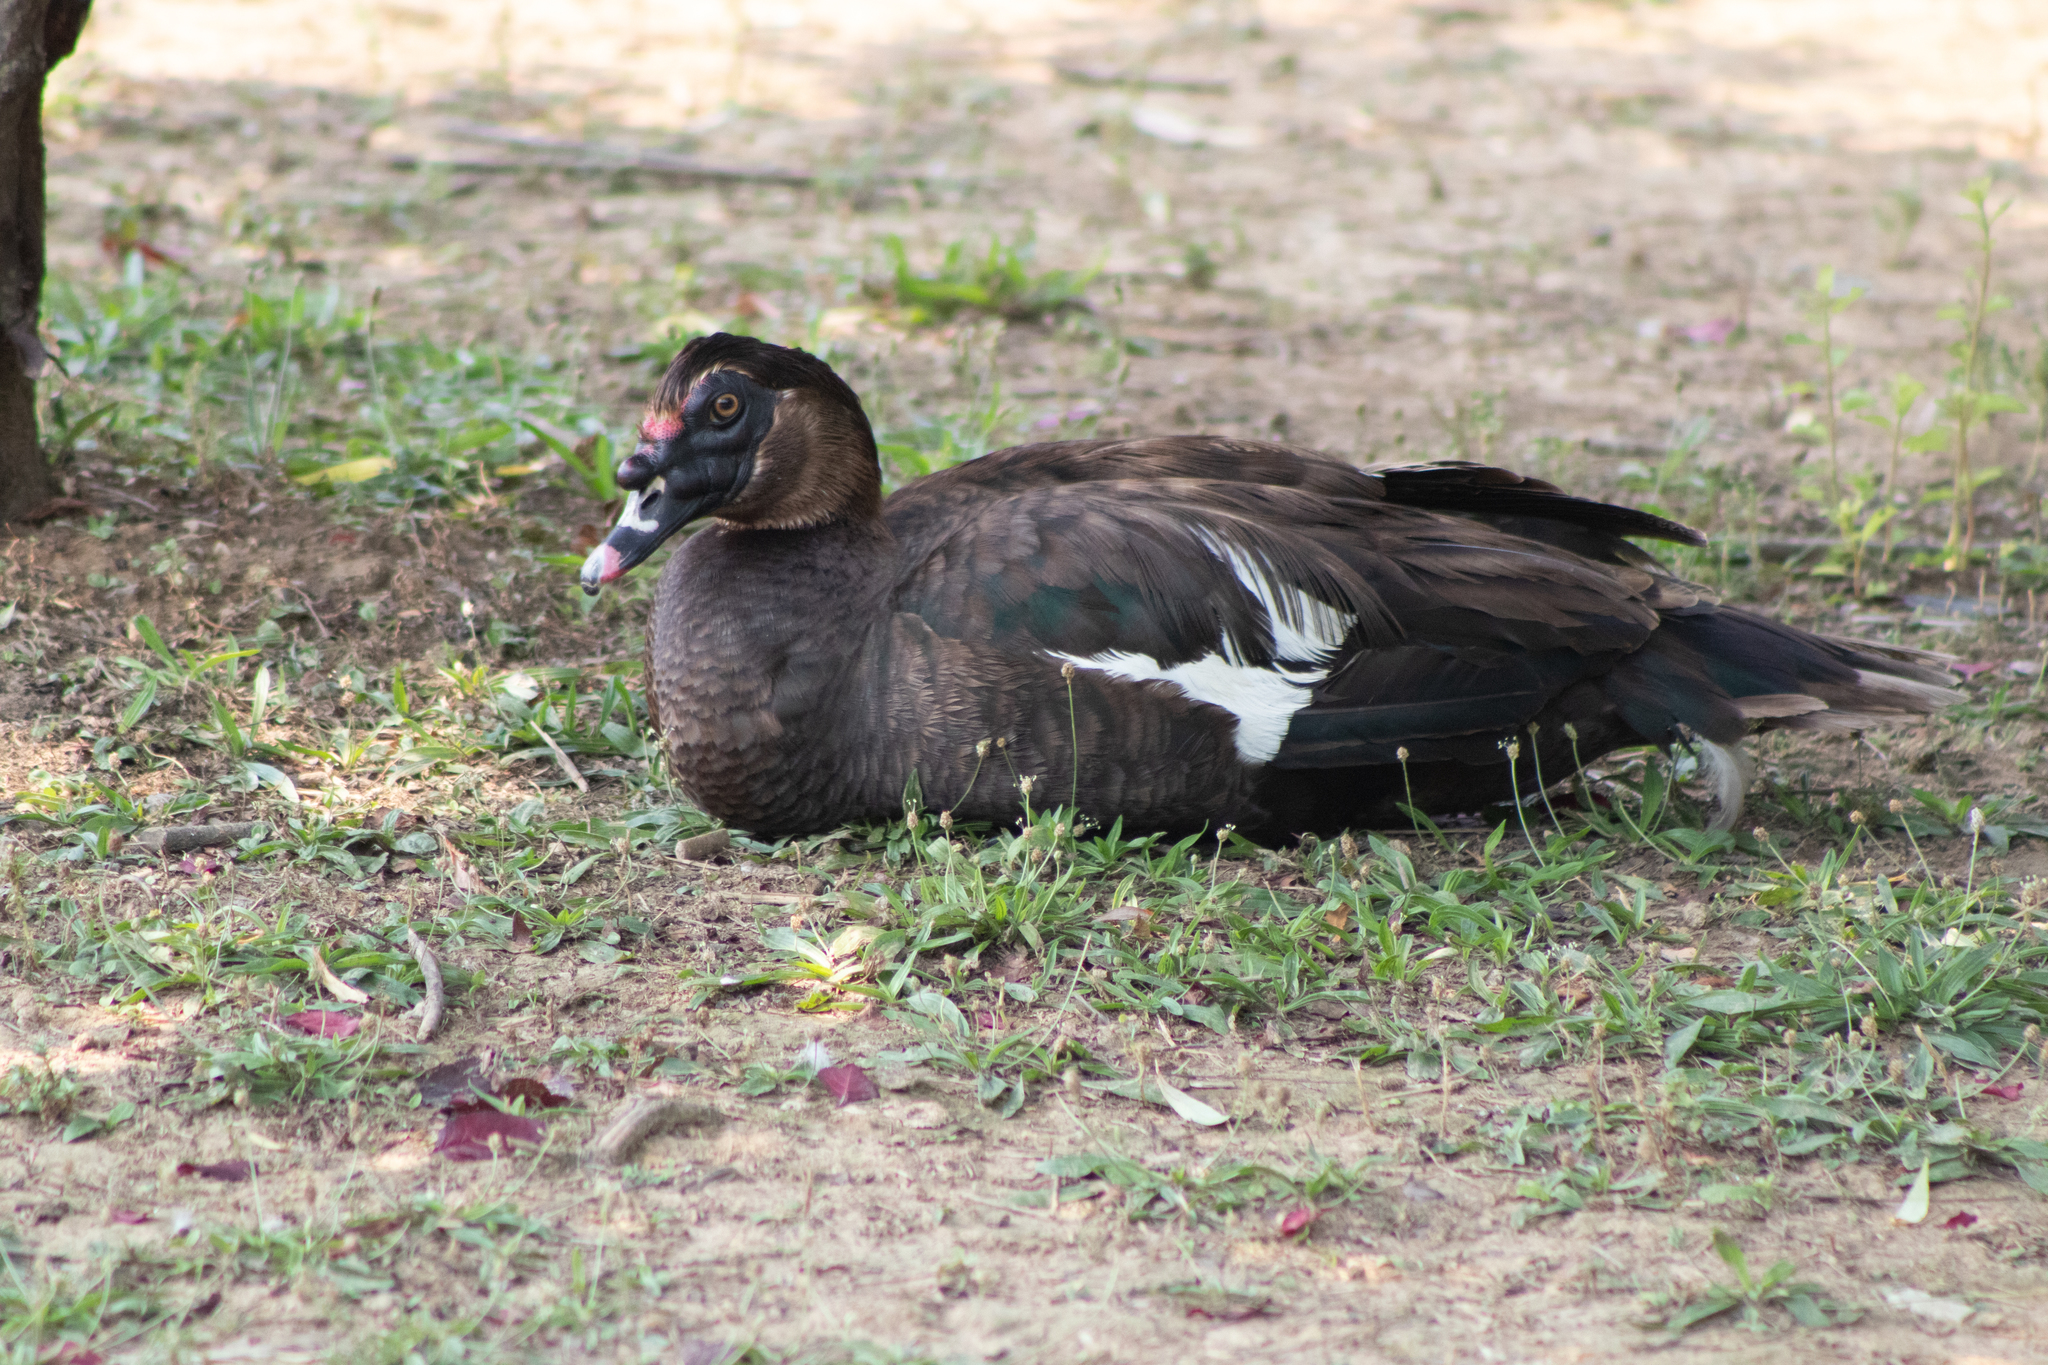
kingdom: Animalia
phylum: Chordata
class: Aves
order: Anseriformes
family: Anatidae
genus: Cairina
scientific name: Cairina moschata
